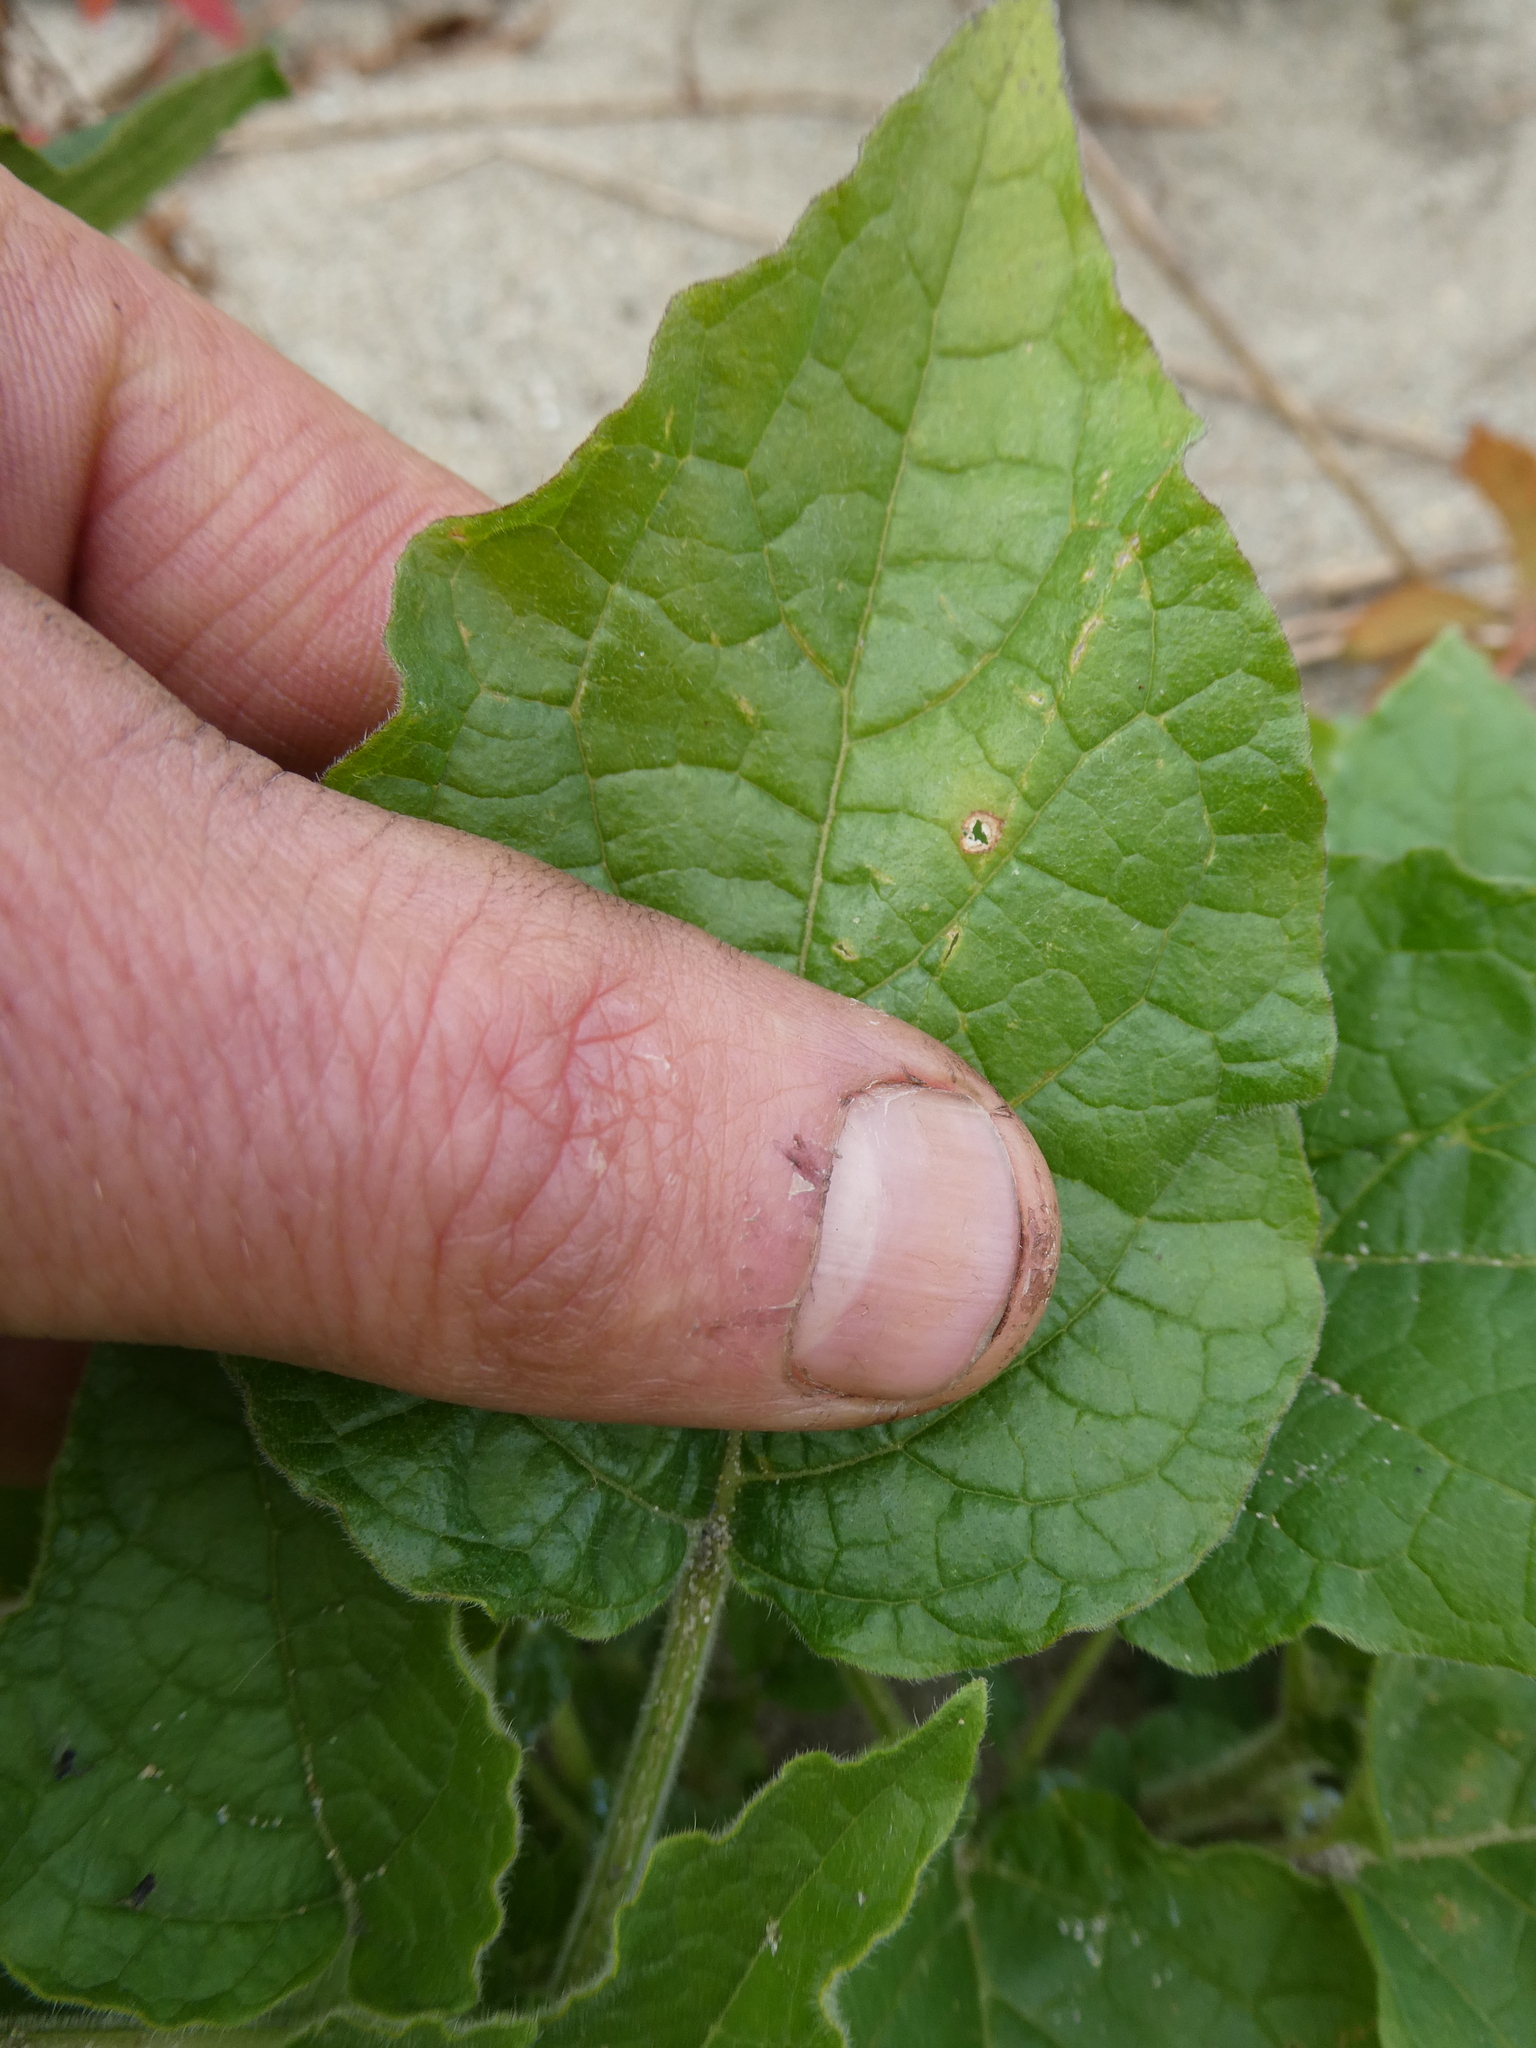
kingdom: Plantae
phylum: Tracheophyta
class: Magnoliopsida
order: Solanales
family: Solanaceae
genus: Physalis
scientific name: Physalis heterophylla
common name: Clammy ground-cherry
